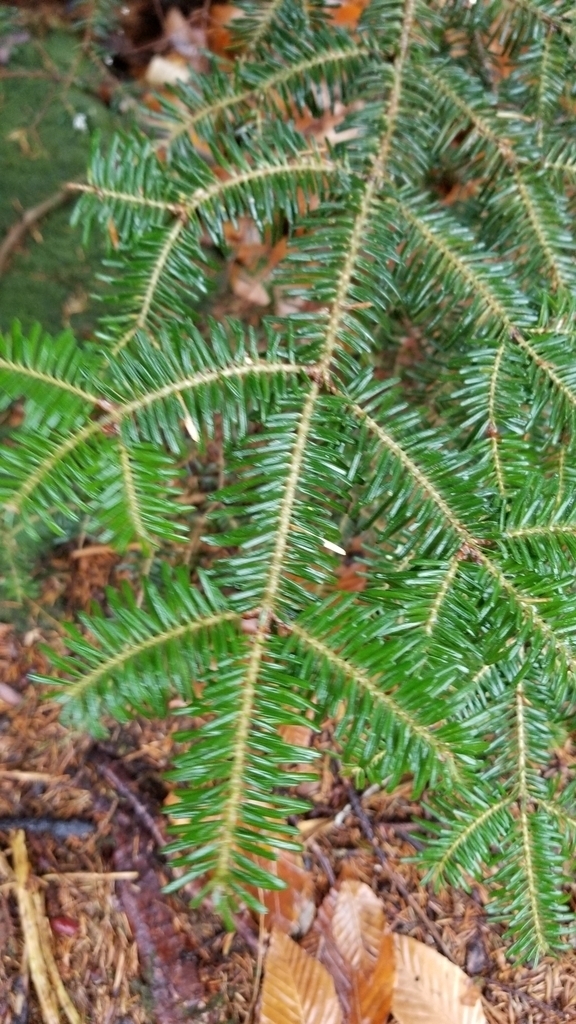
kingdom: Plantae
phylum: Tracheophyta
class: Pinopsida
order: Pinales
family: Pinaceae
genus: Abies
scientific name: Abies fraseri
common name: Fraser fir
